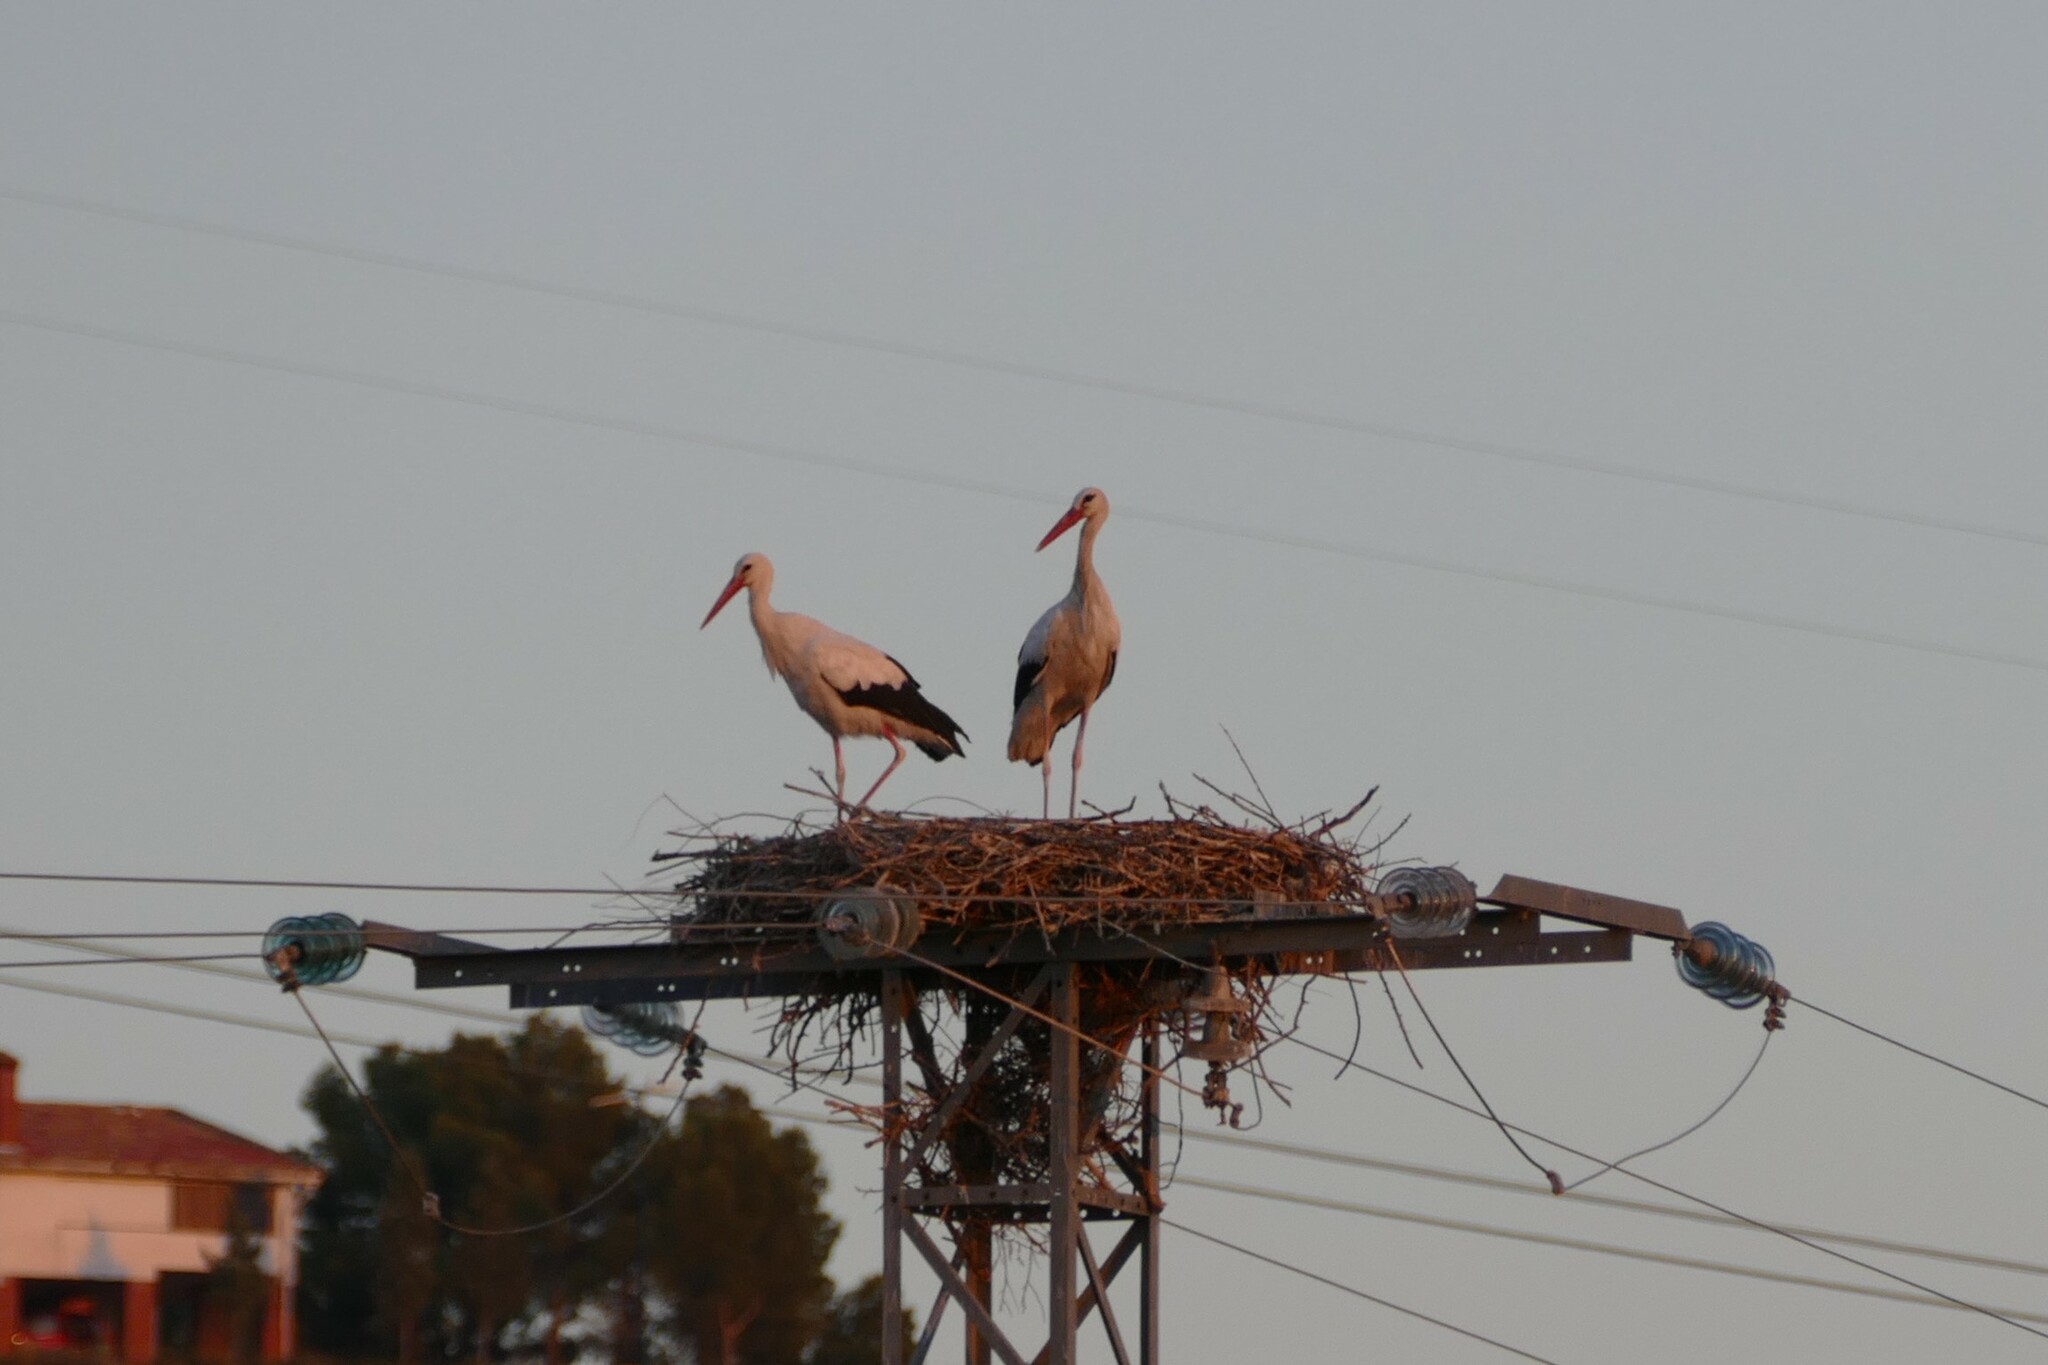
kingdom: Animalia
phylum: Chordata
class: Aves
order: Ciconiiformes
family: Ciconiidae
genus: Ciconia
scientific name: Ciconia ciconia
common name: White stork
